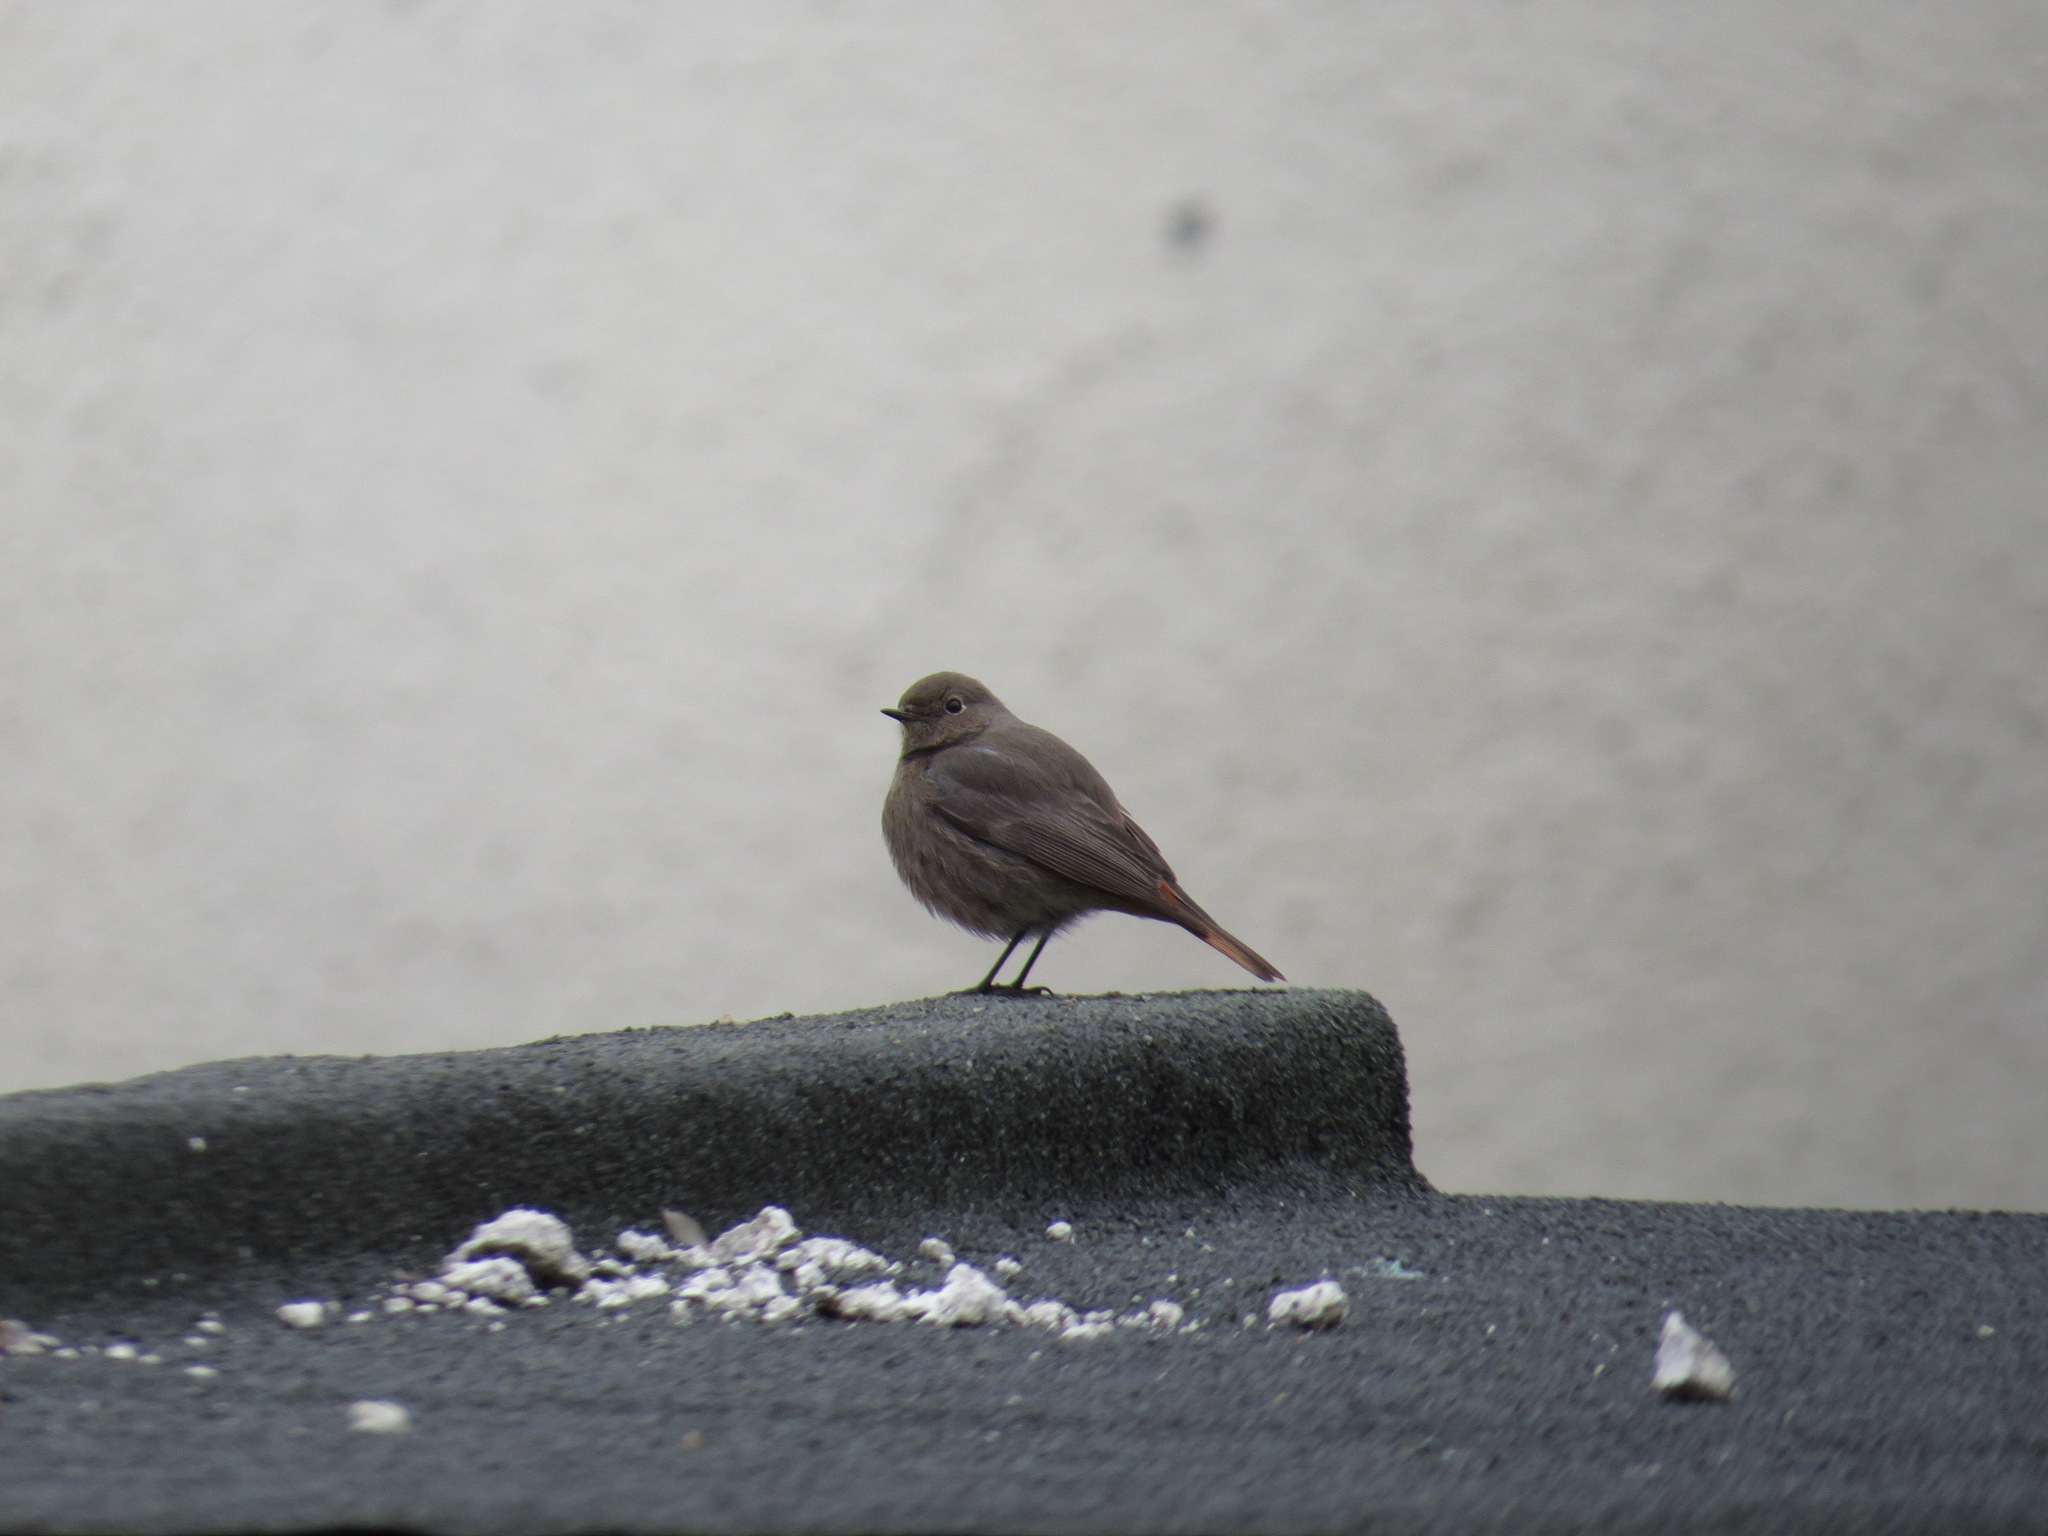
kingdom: Animalia
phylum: Chordata
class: Aves
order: Passeriformes
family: Muscicapidae
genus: Phoenicurus
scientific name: Phoenicurus ochruros
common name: Black redstart
